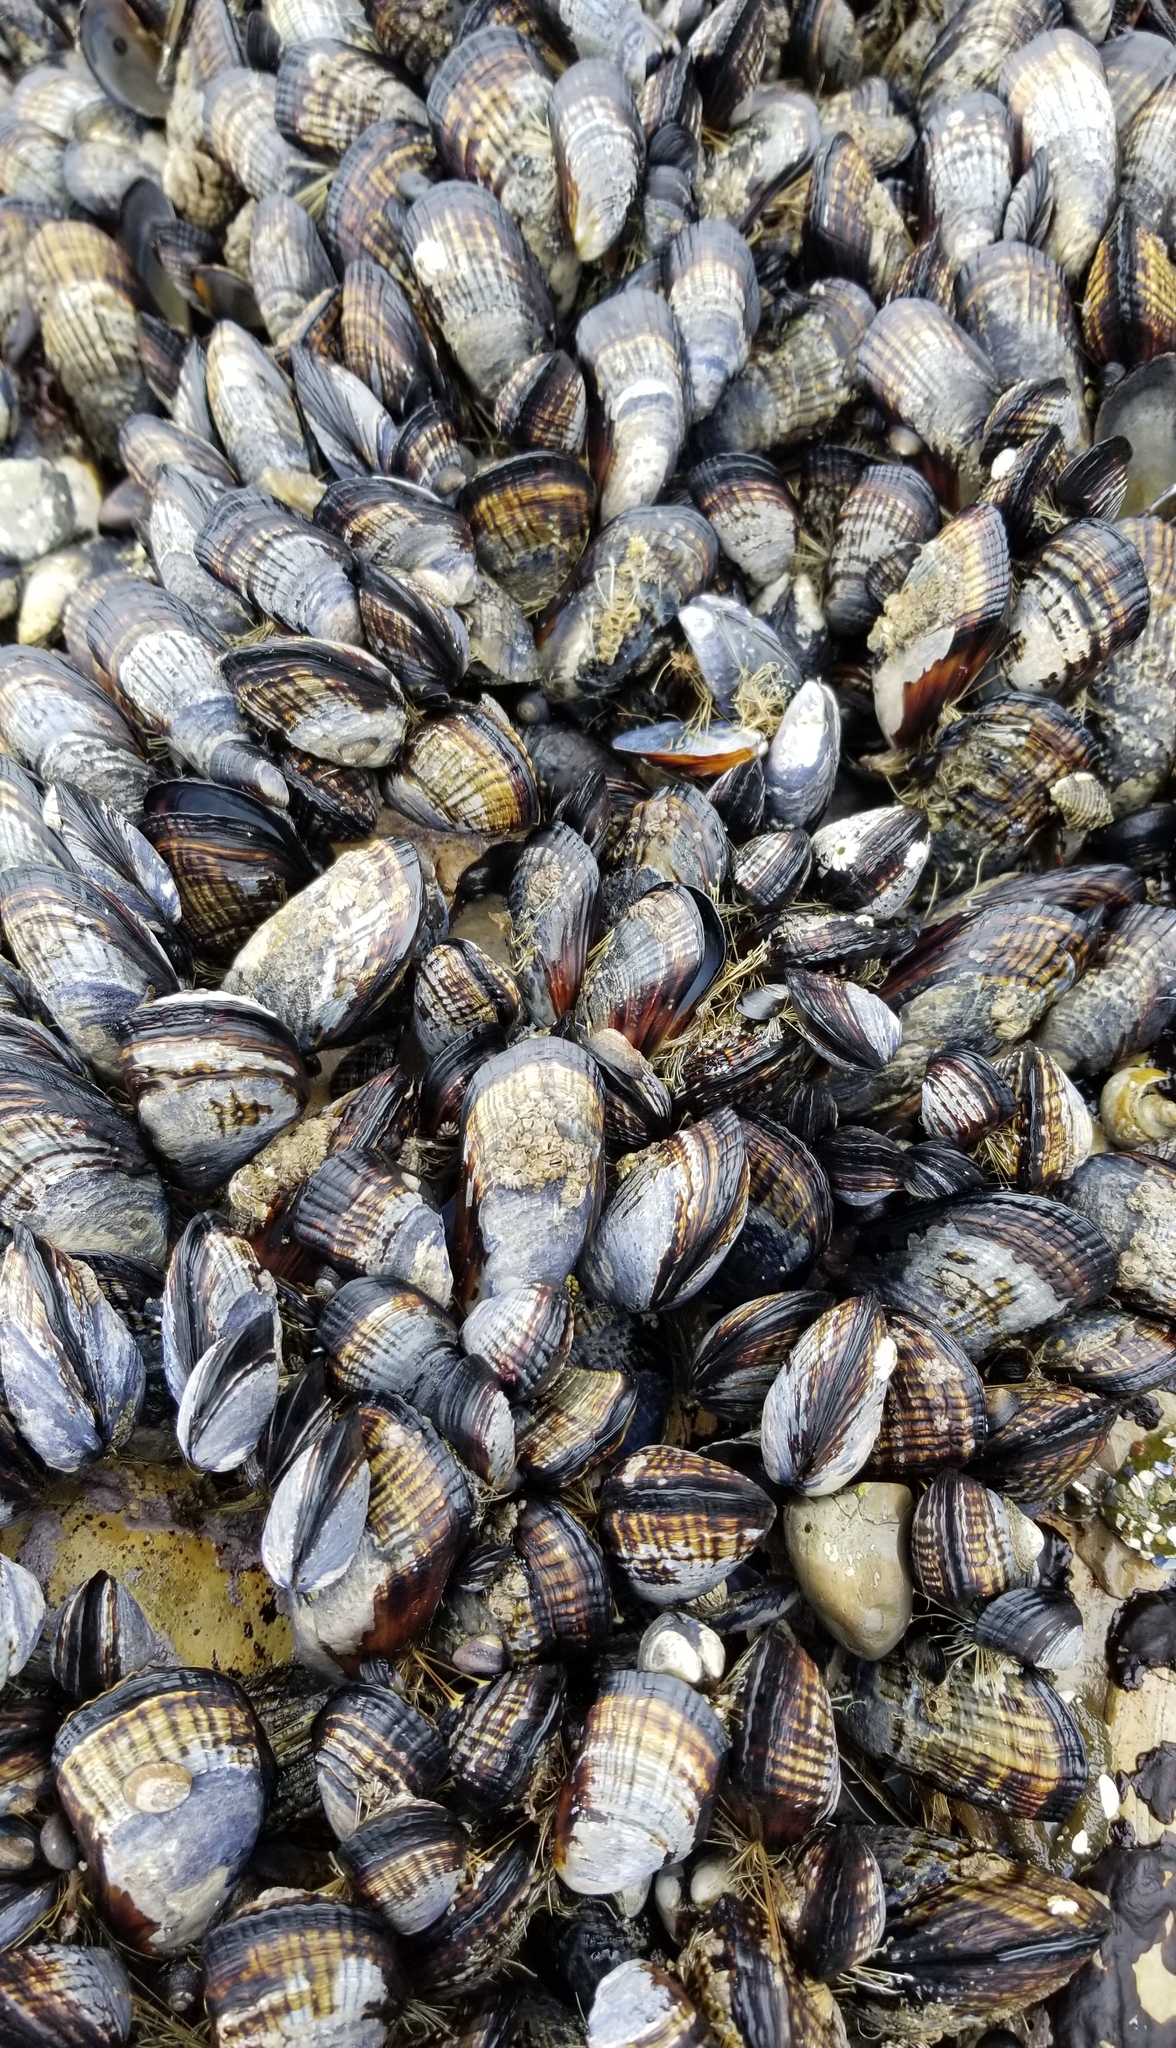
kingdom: Animalia
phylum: Mollusca
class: Bivalvia
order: Mytilida
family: Mytilidae
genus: Mytilus
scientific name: Mytilus californianus
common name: California mussel
